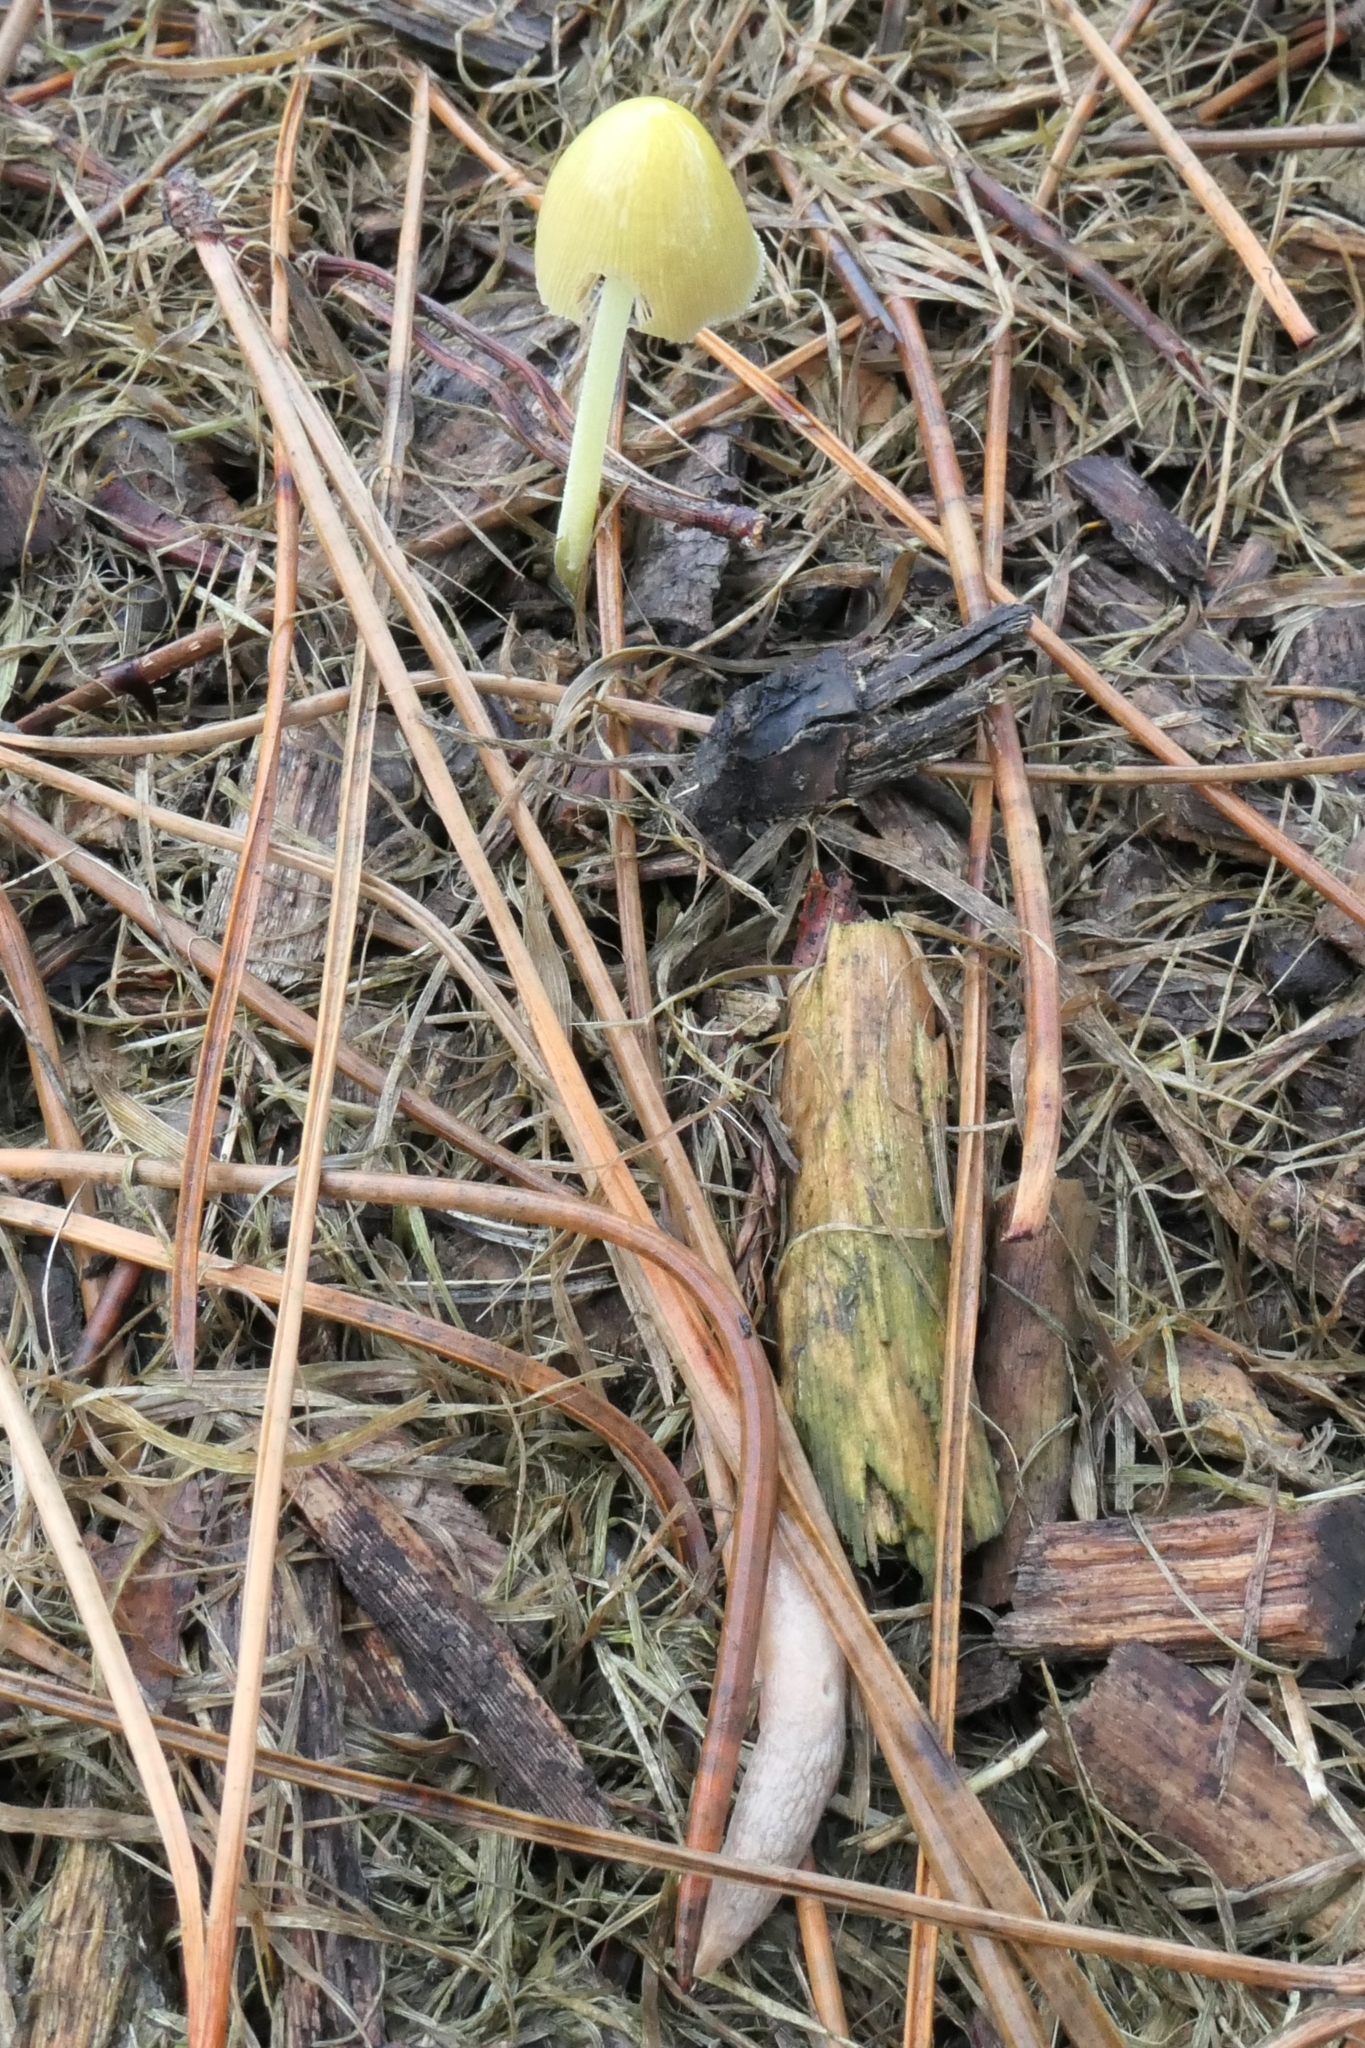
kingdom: Fungi
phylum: Basidiomycota
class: Agaricomycetes
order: Agaricales
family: Bolbitiaceae
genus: Bolbitius
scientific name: Bolbitius titubans
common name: Yellow fieldcap
